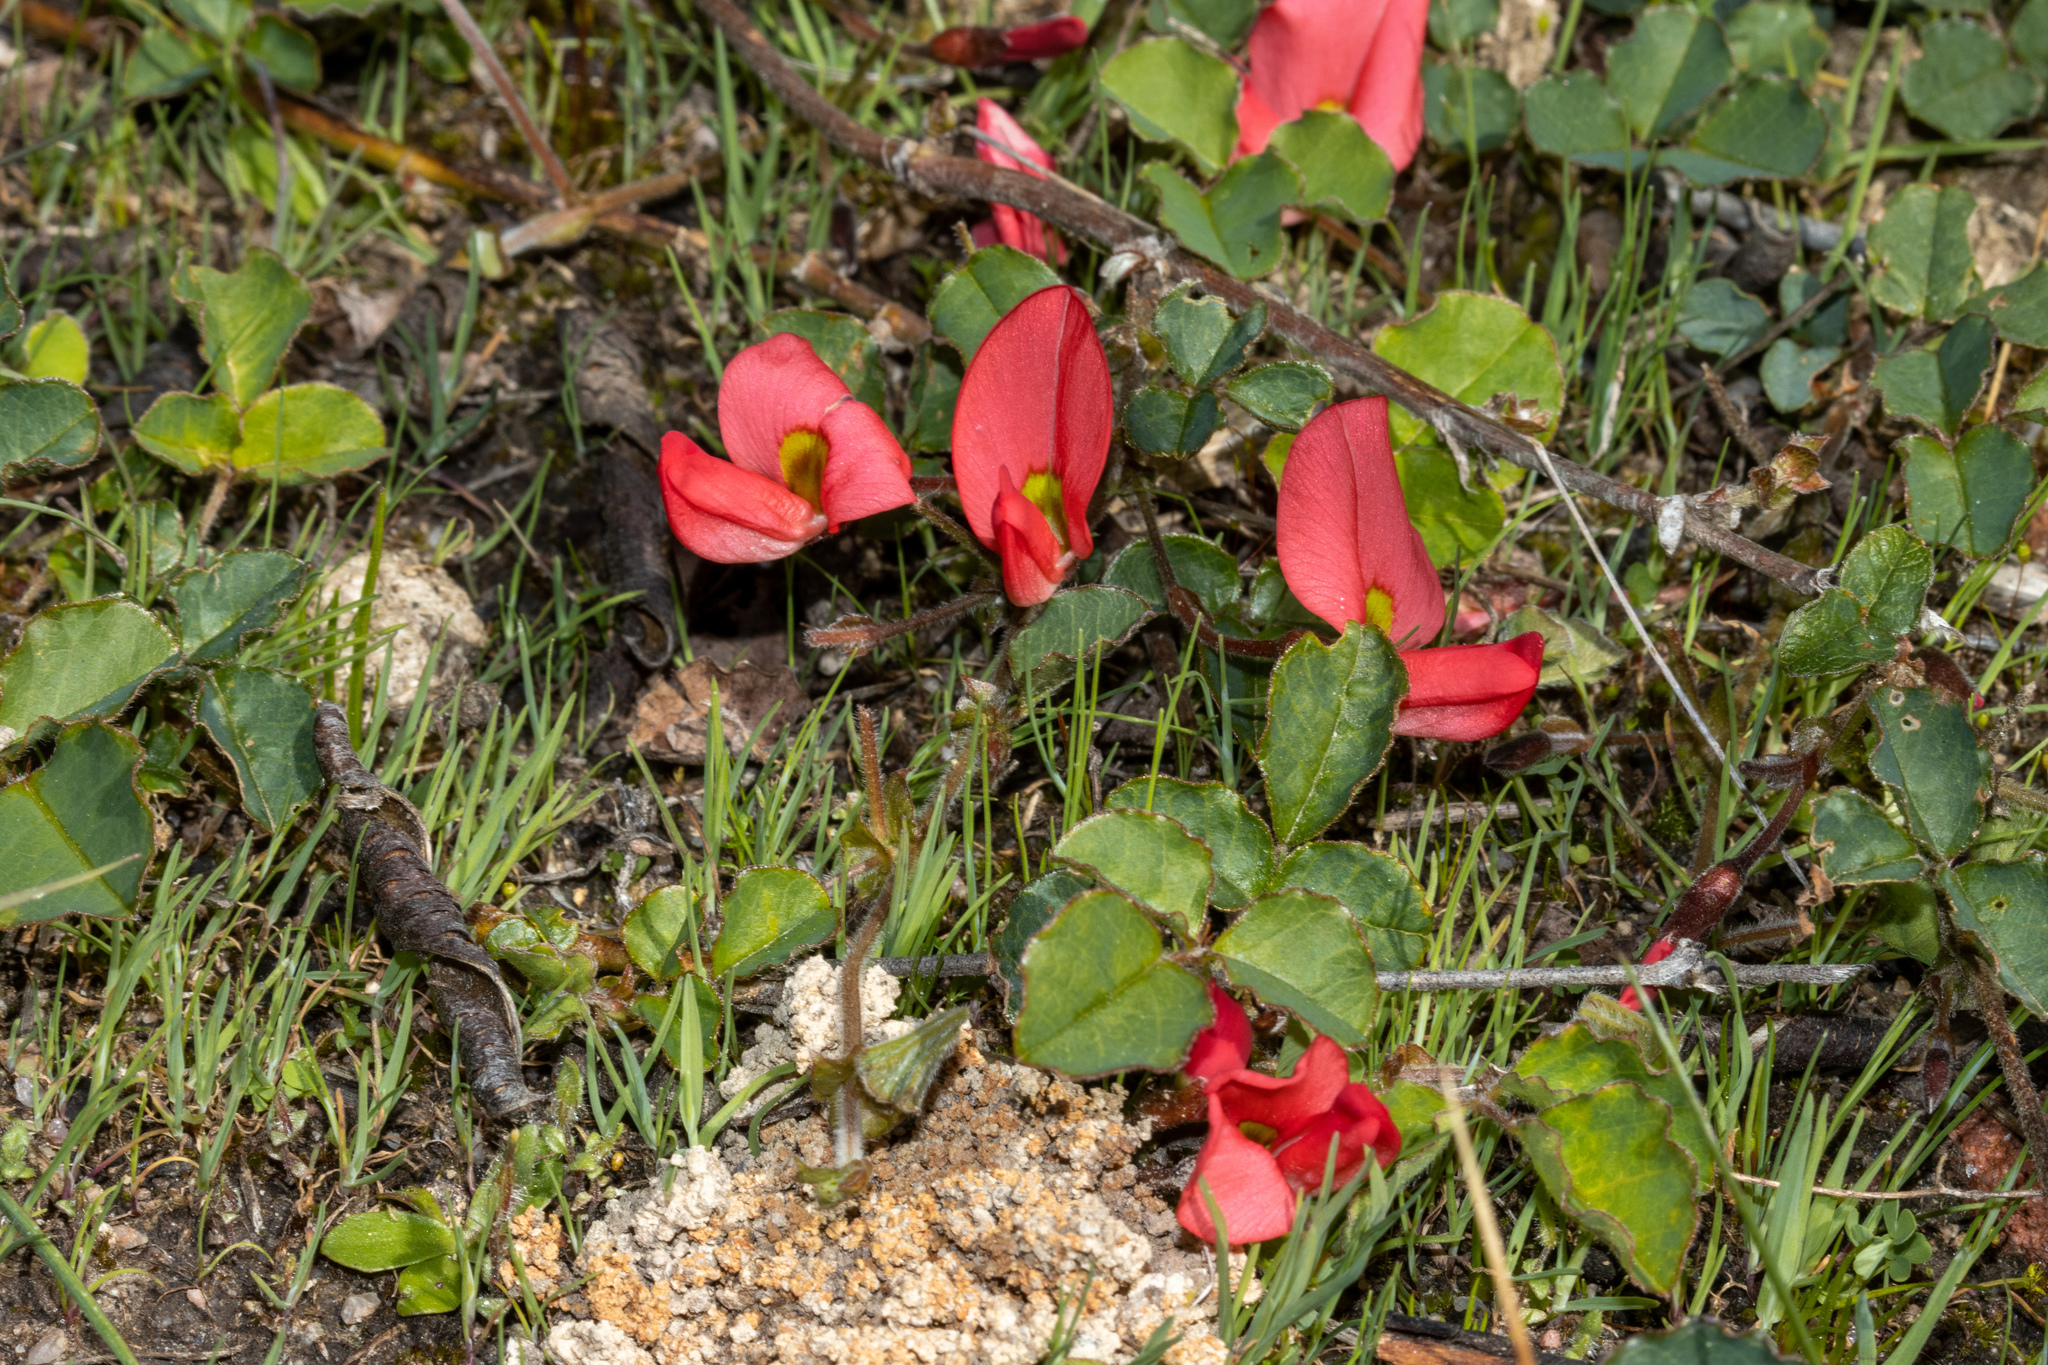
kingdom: Plantae
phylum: Tracheophyta
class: Magnoliopsida
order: Fabales
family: Fabaceae
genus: Kennedia
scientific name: Kennedia prostrata
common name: Running-postman
